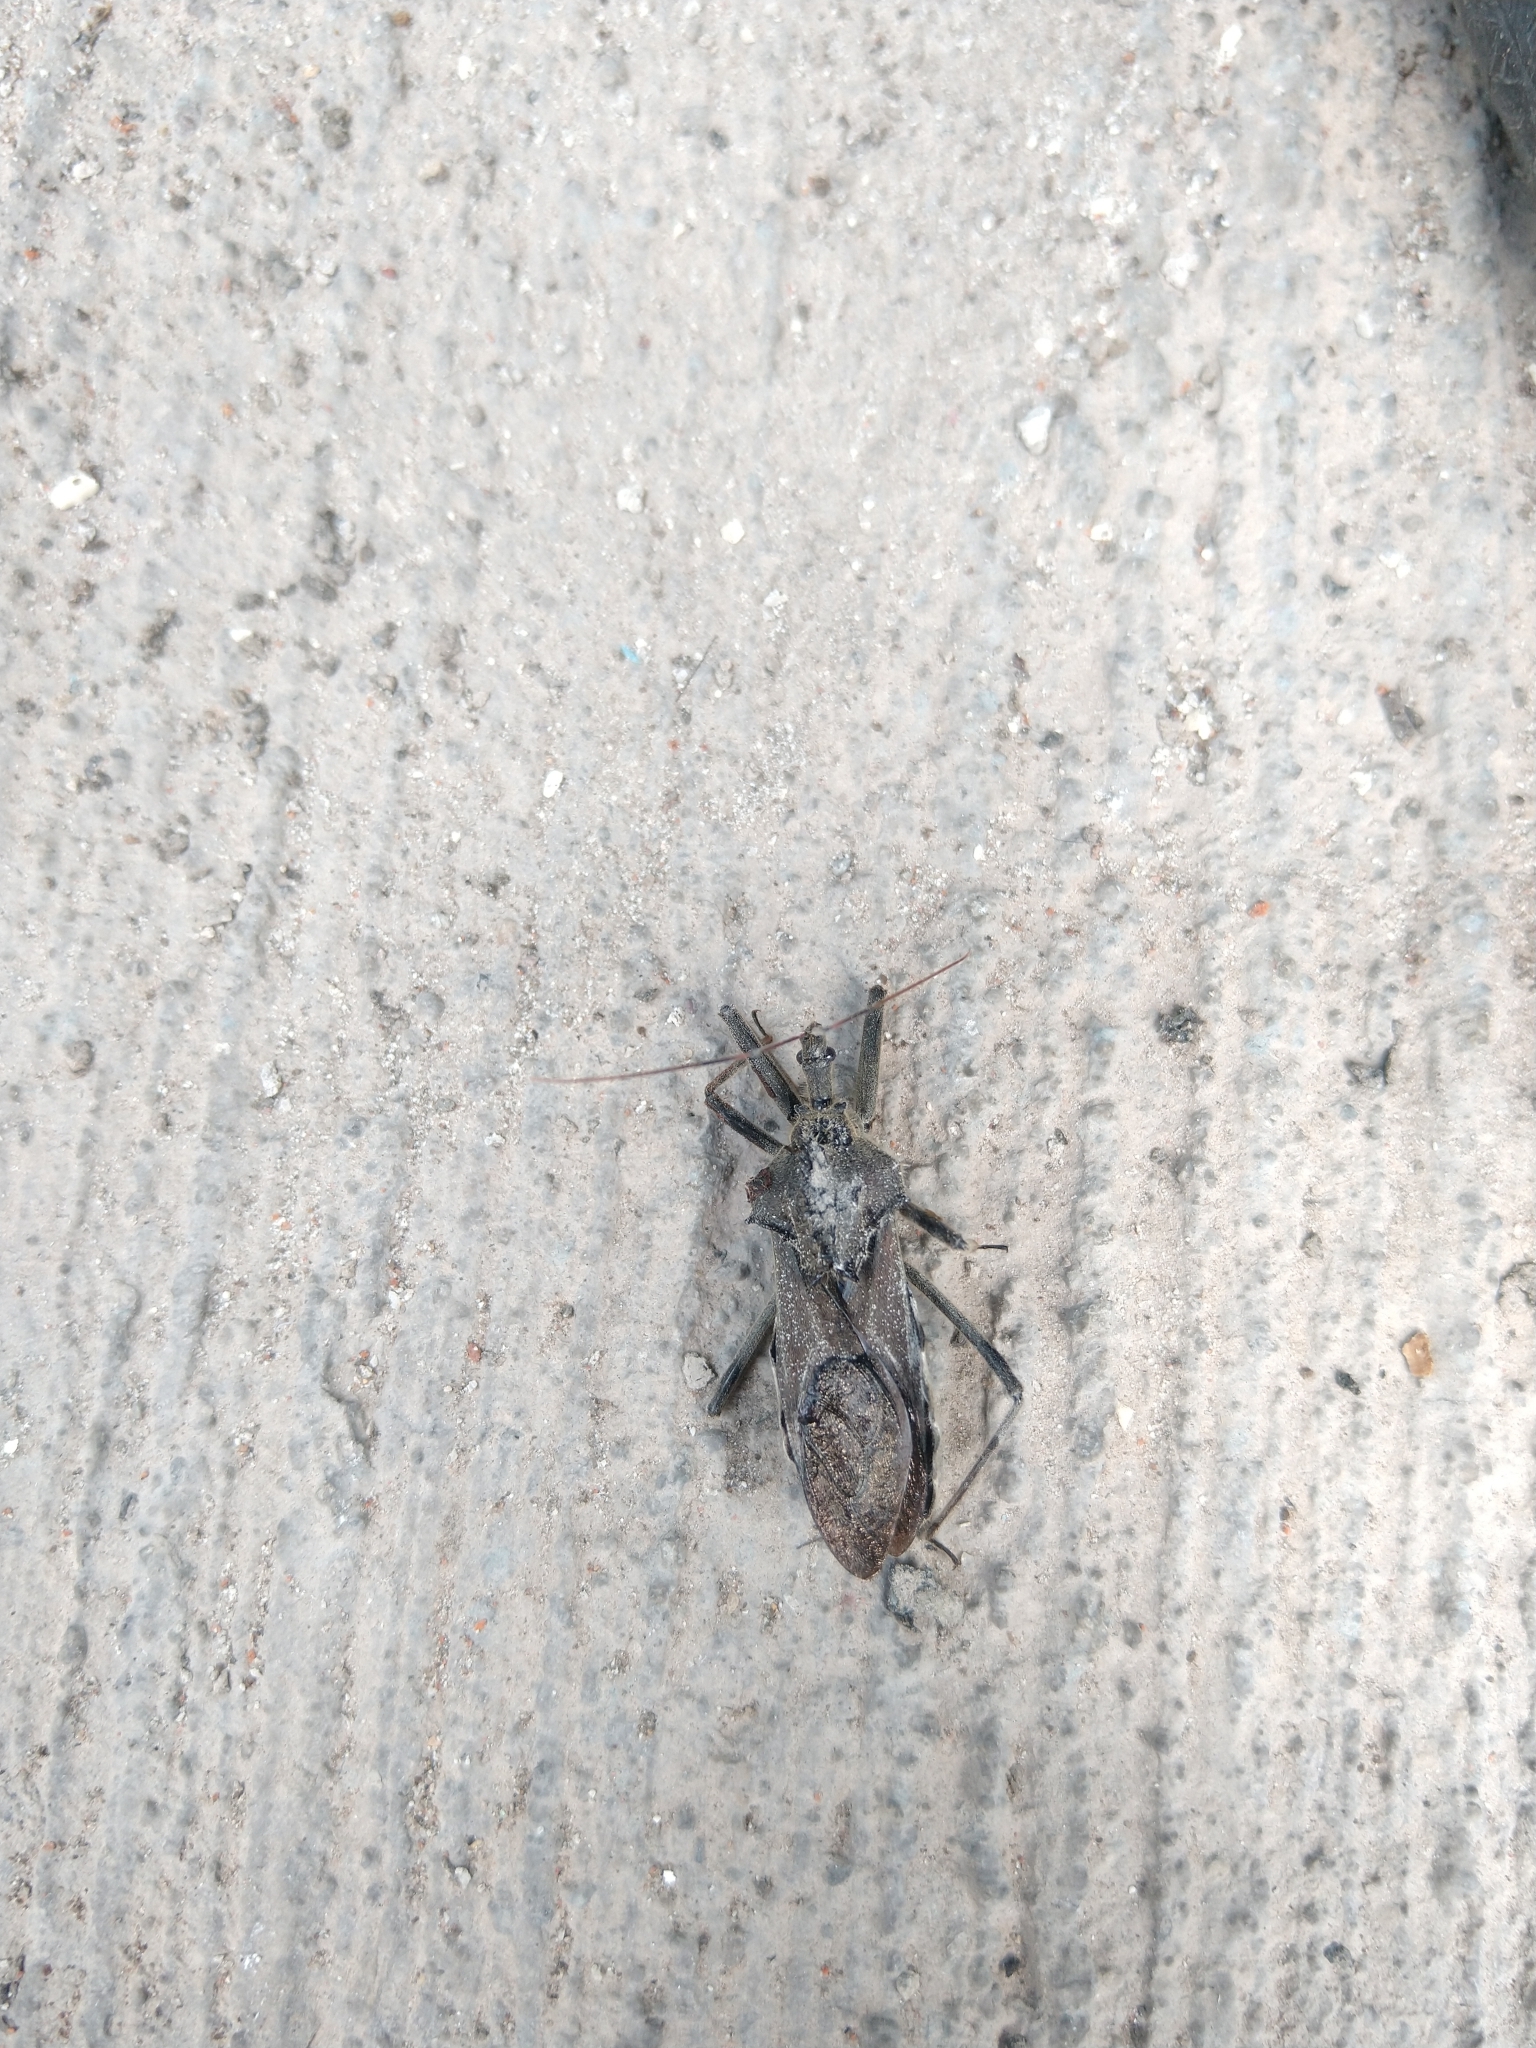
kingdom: Animalia
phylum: Arthropoda
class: Insecta
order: Hemiptera
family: Reduviidae
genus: Arilus
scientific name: Arilus cristatus
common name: North american wheel bug
